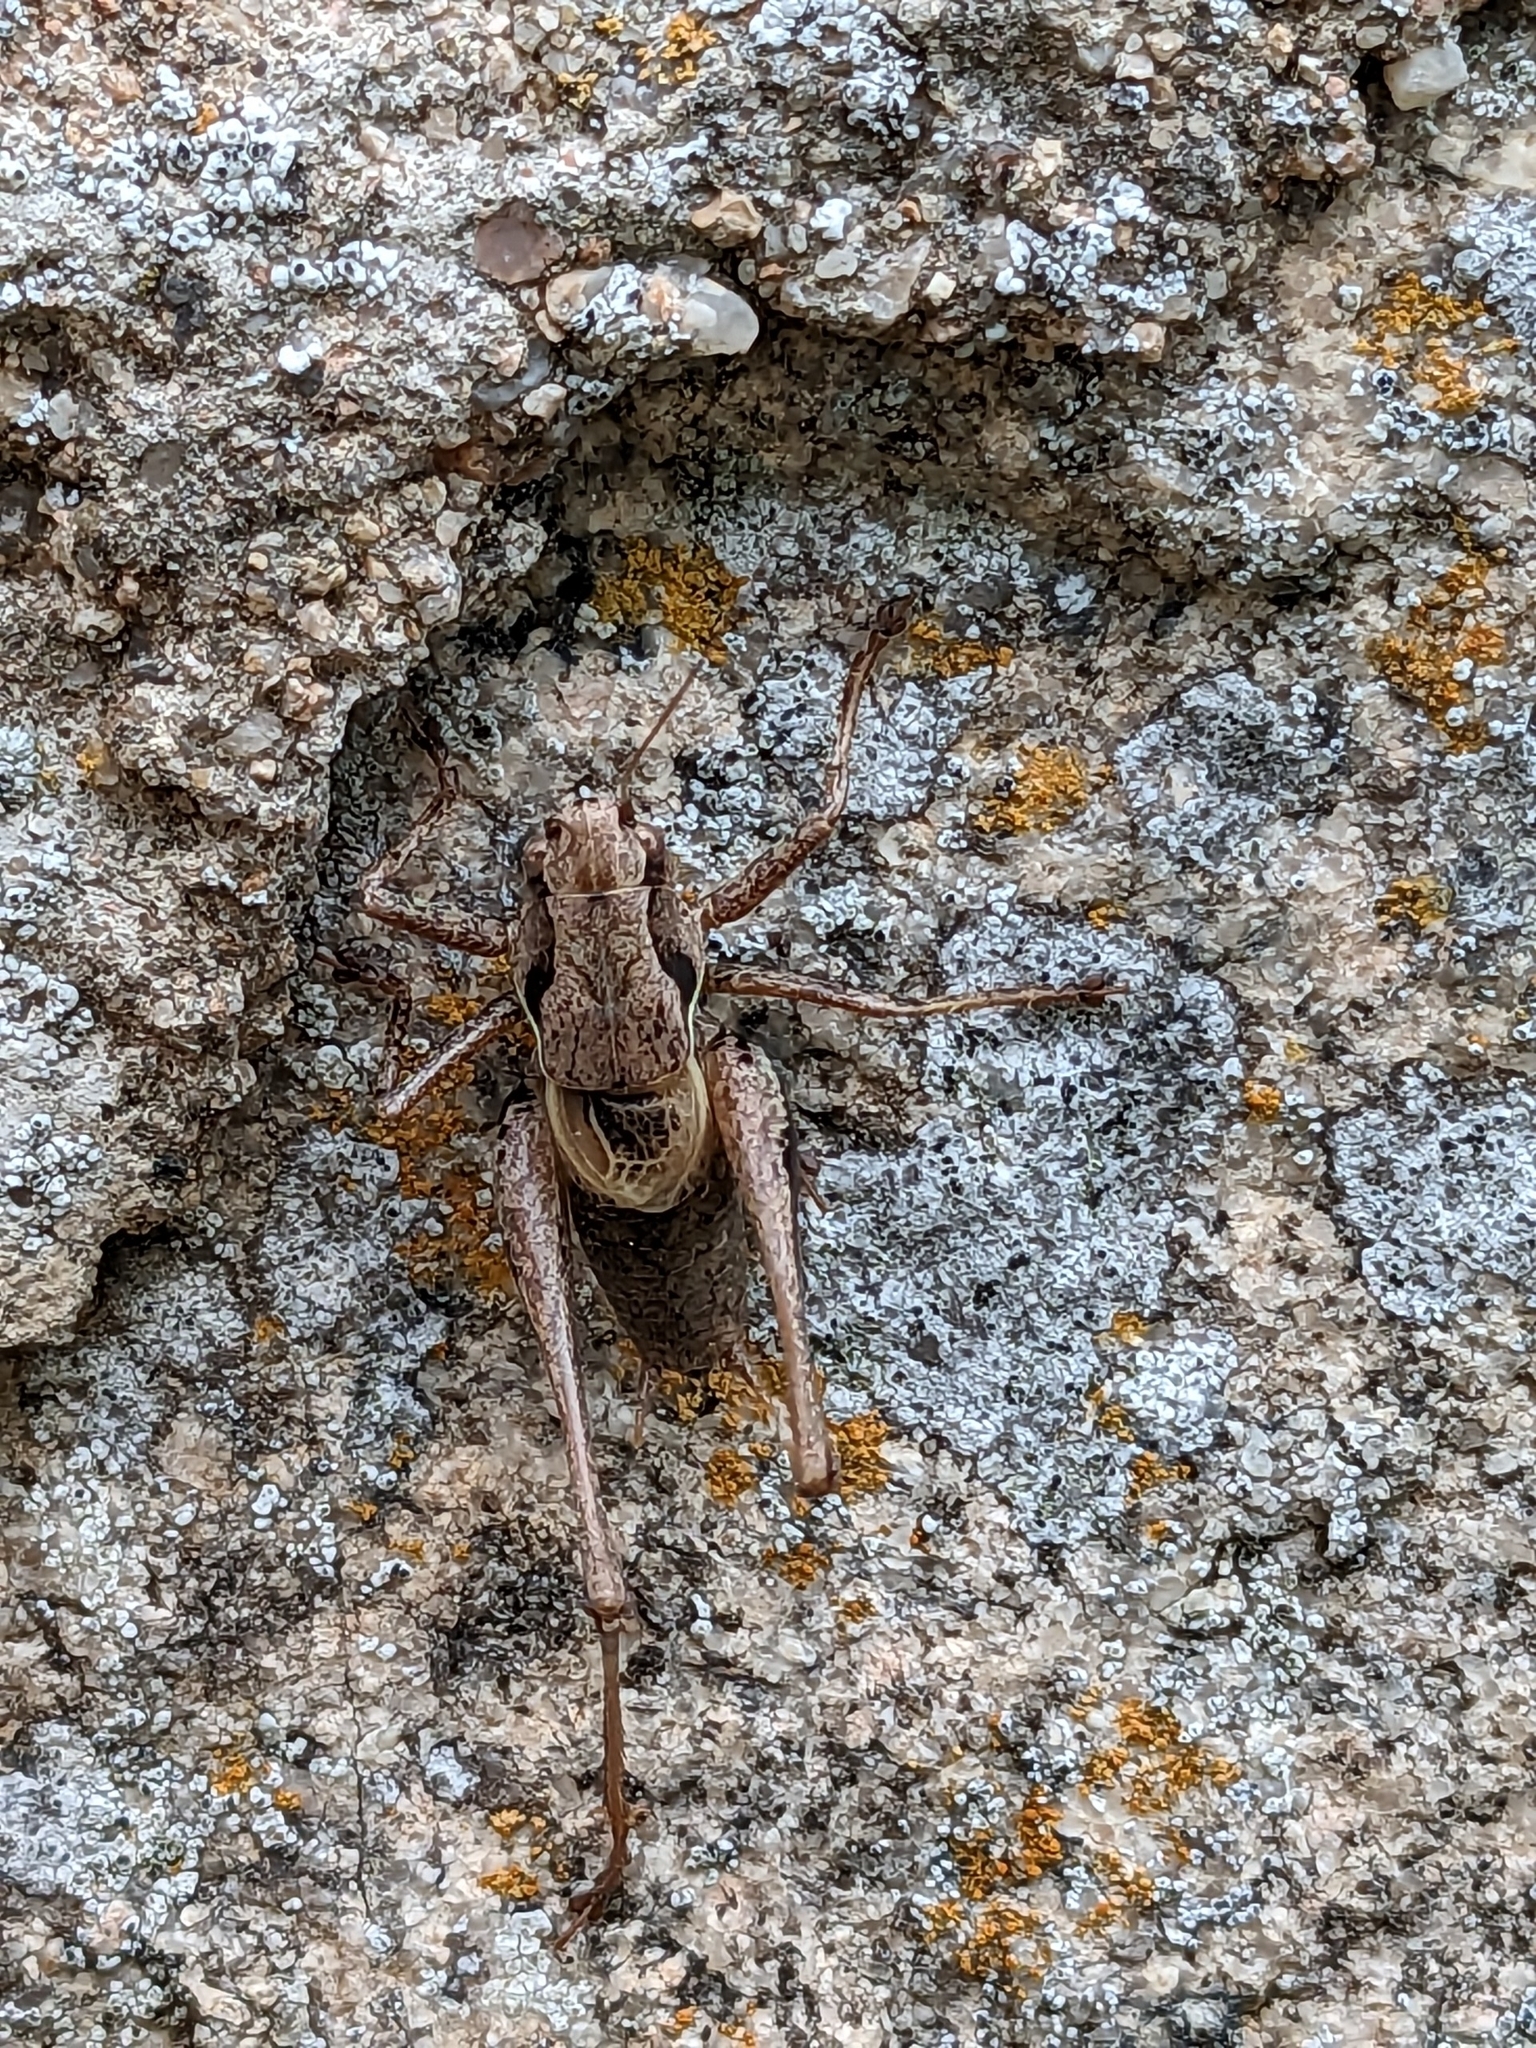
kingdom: Animalia
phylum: Arthropoda
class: Insecta
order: Orthoptera
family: Tettigoniidae
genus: Pholidoptera
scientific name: Pholidoptera griseoaptera
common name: Dark bush-cricket
